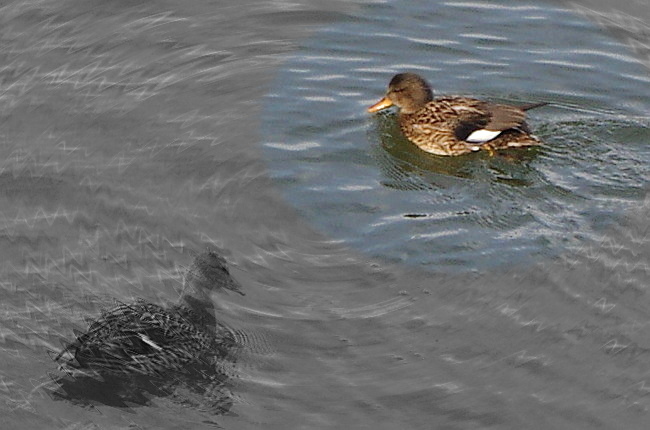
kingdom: Animalia
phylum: Chordata
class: Aves
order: Anseriformes
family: Anatidae
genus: Mareca
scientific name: Mareca strepera
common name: Gadwall
